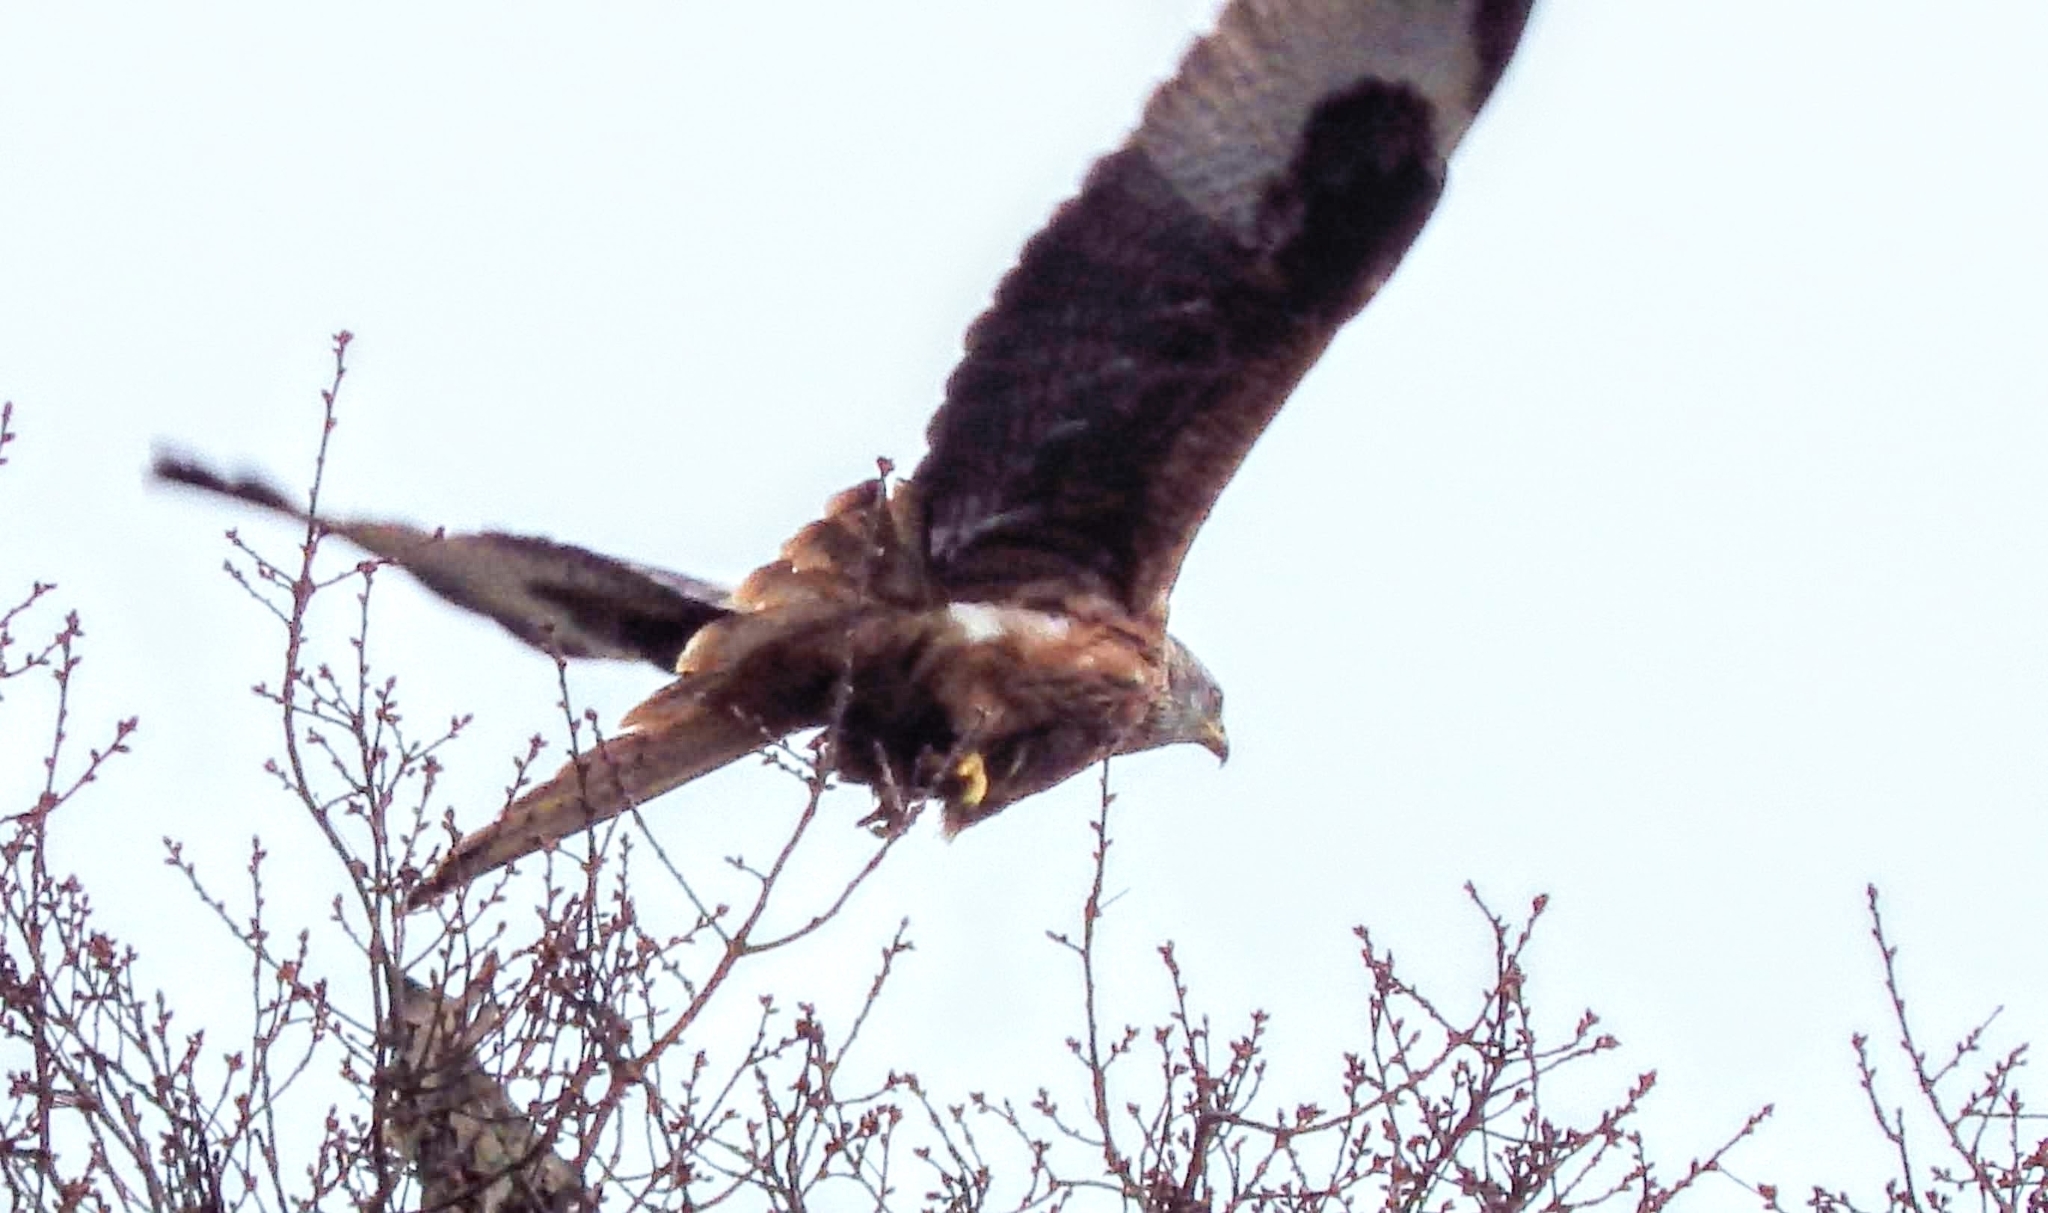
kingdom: Animalia
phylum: Chordata
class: Aves
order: Accipitriformes
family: Accipitridae
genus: Milvus
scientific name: Milvus milvus
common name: Red kite
